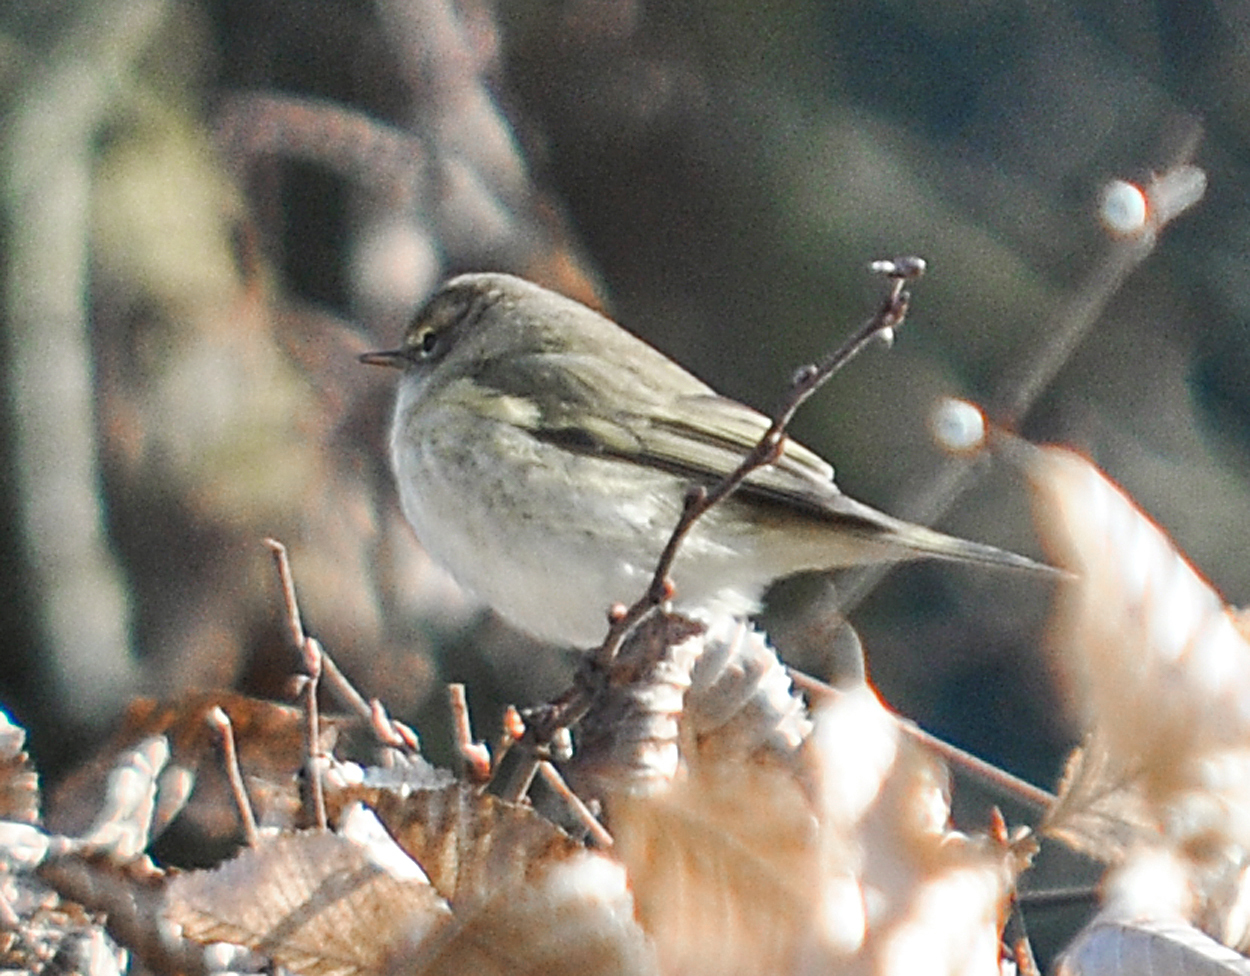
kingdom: Animalia
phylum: Chordata
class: Aves
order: Passeriformes
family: Phylloscopidae
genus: Phylloscopus
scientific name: Phylloscopus collybita
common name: Common chiffchaff
